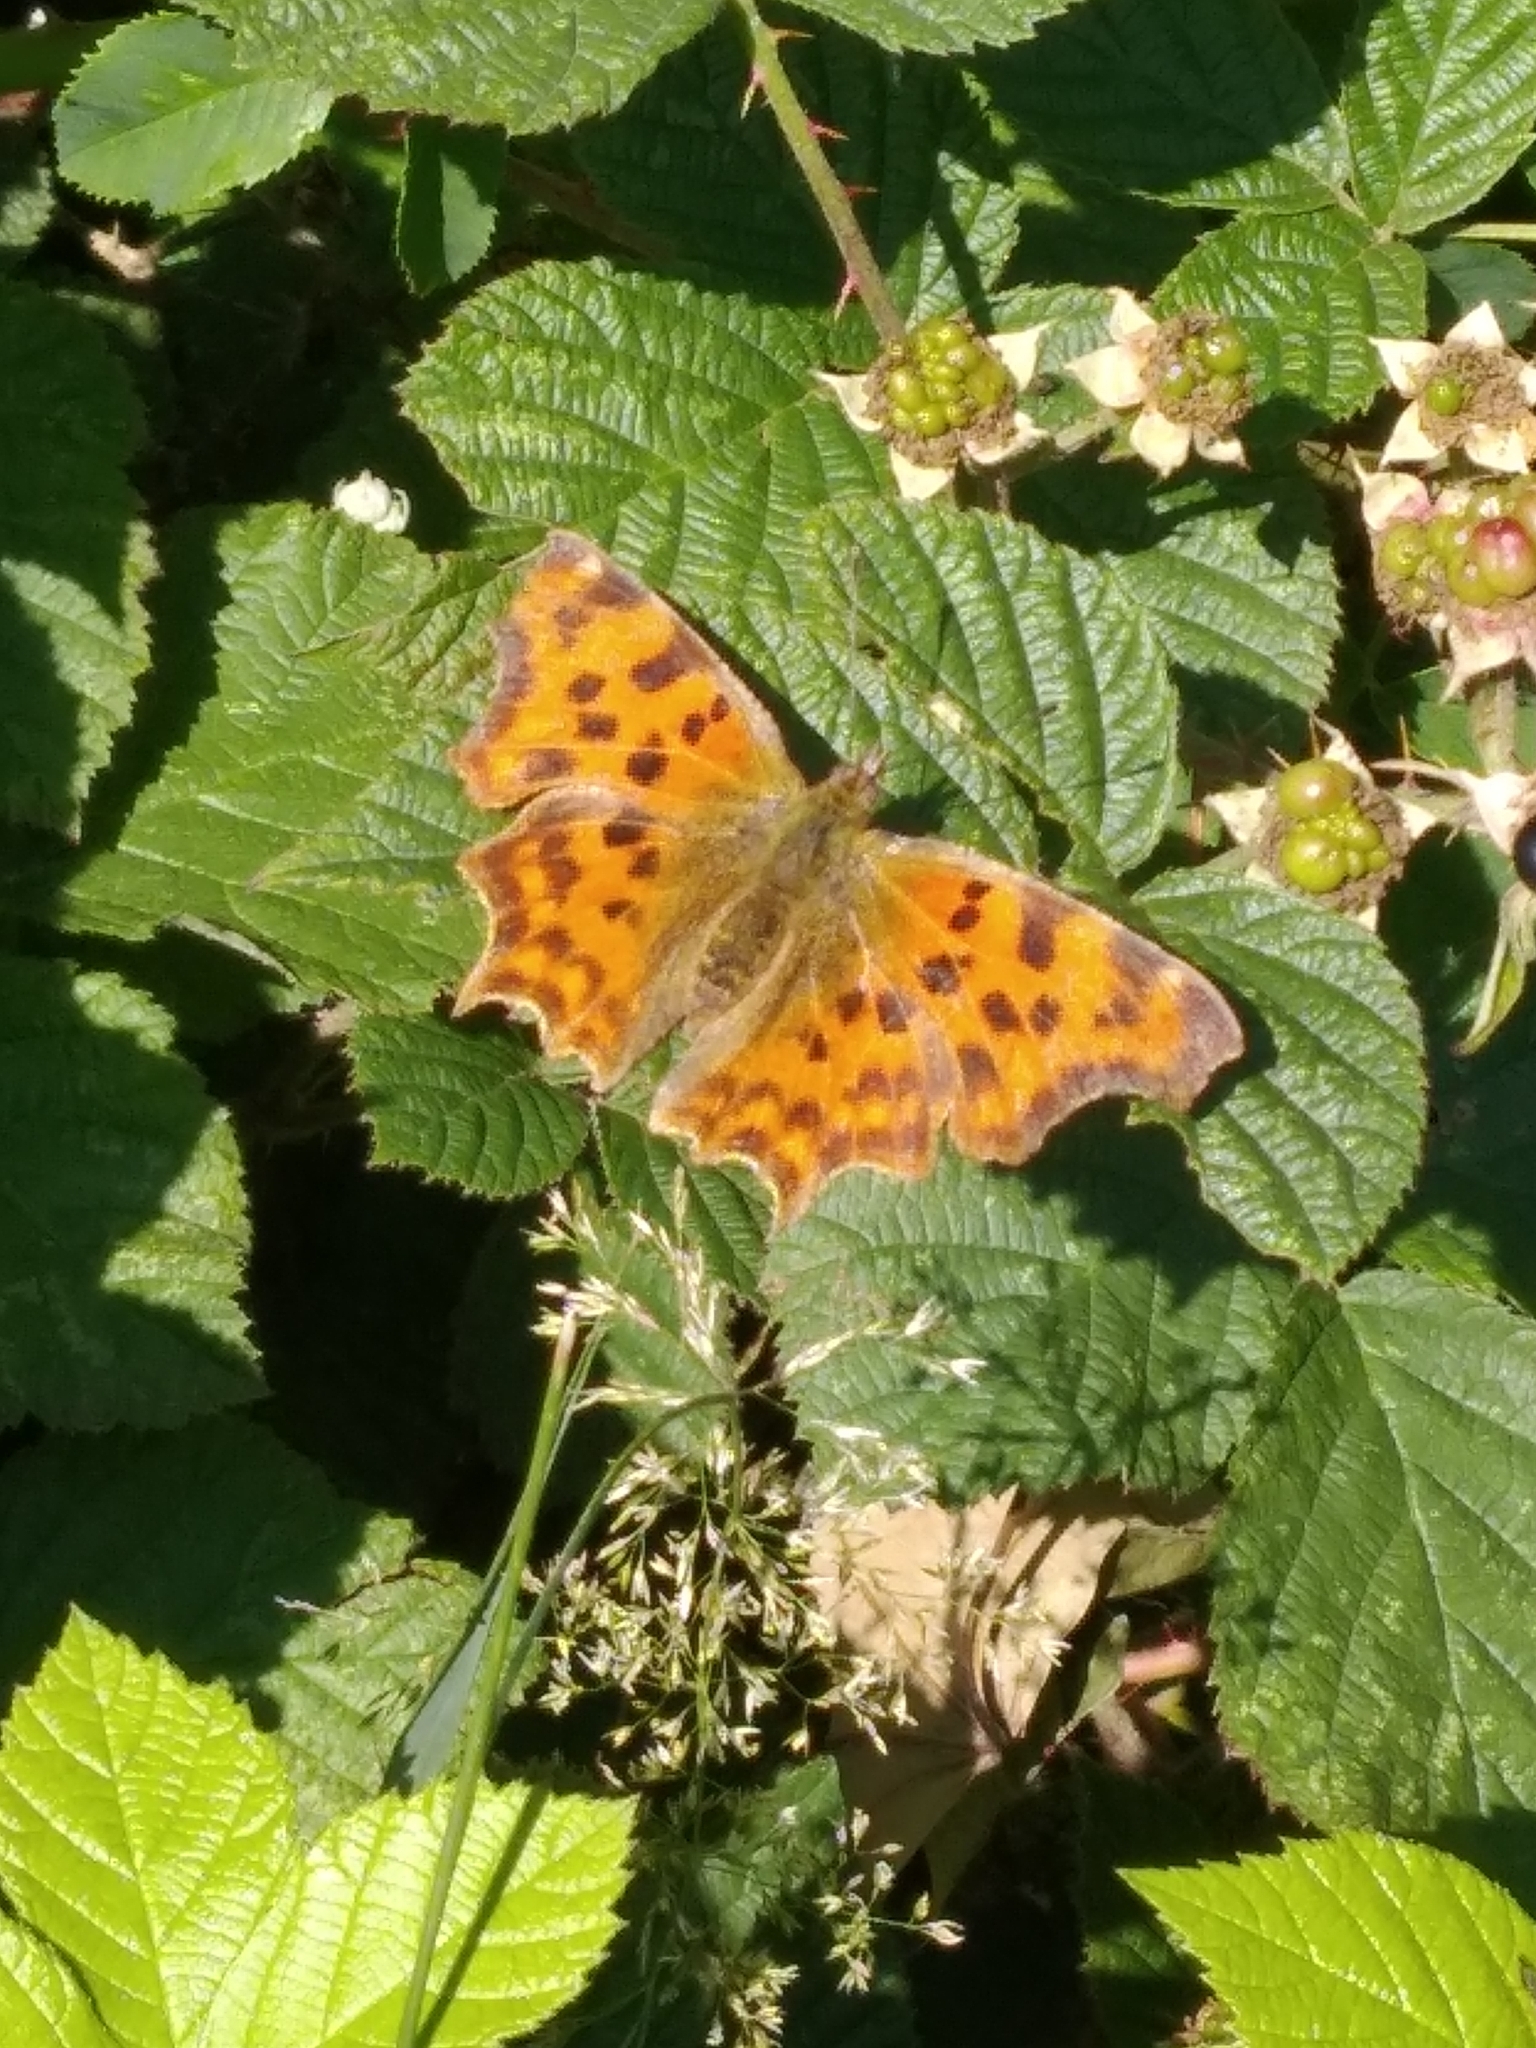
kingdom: Animalia
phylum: Arthropoda
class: Insecta
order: Lepidoptera
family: Nymphalidae
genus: Polygonia
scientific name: Polygonia c-album
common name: Comma
